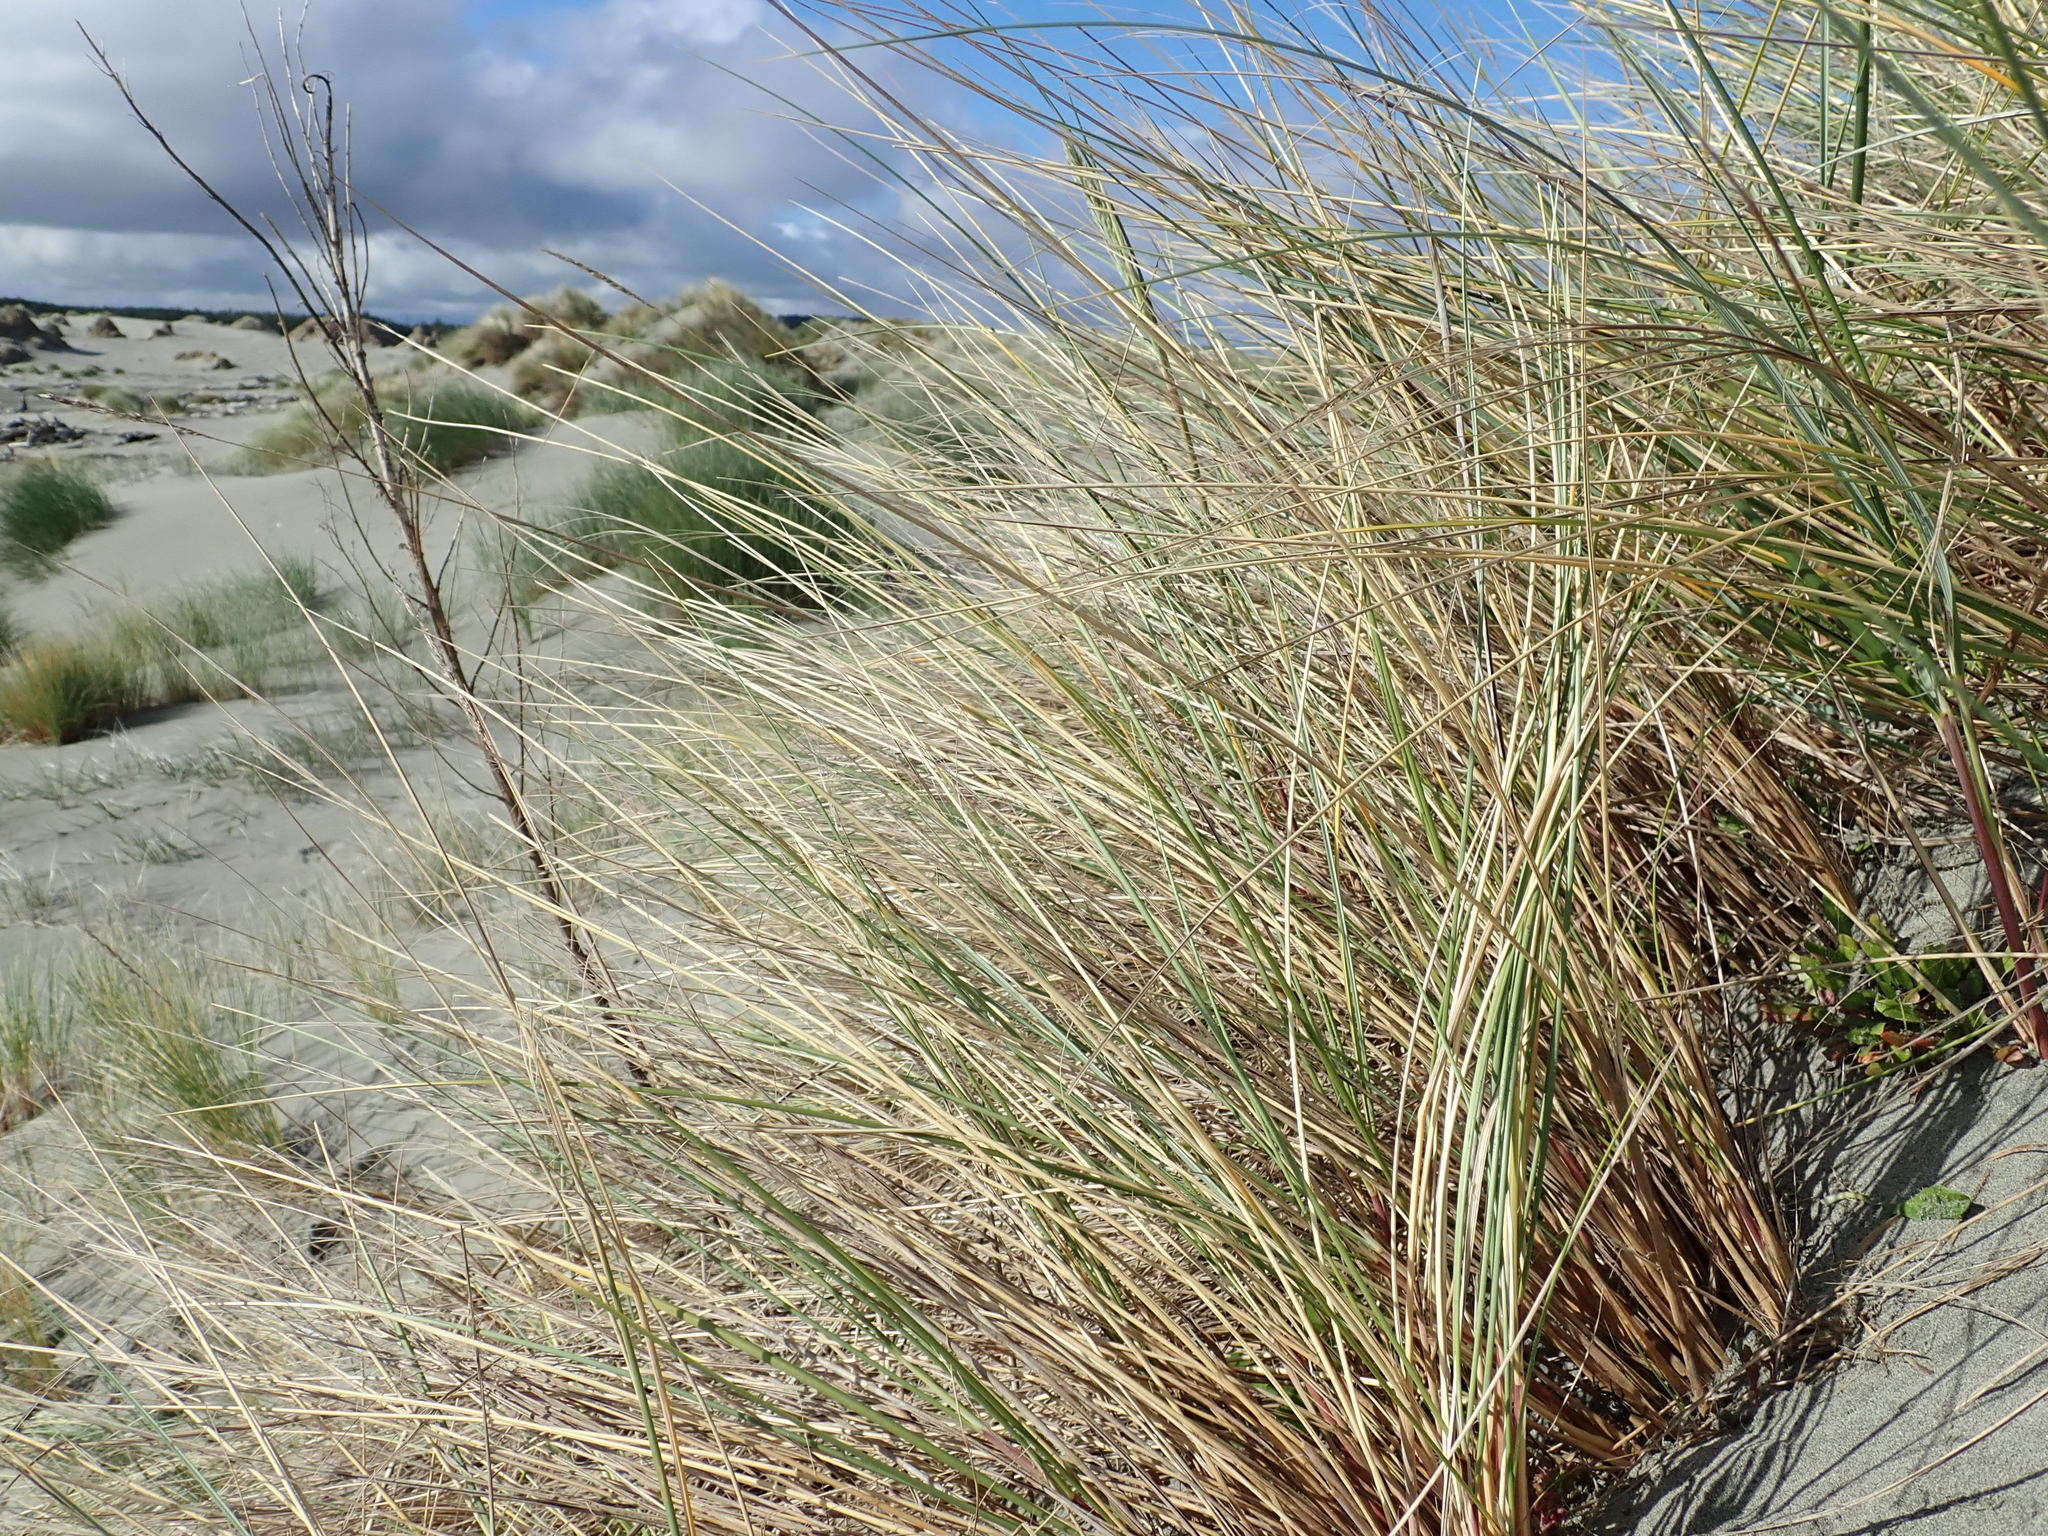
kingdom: Animalia
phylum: Arthropoda
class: Arachnida
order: Araneae
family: Theridiidae
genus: Latrodectus
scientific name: Latrodectus katipo
